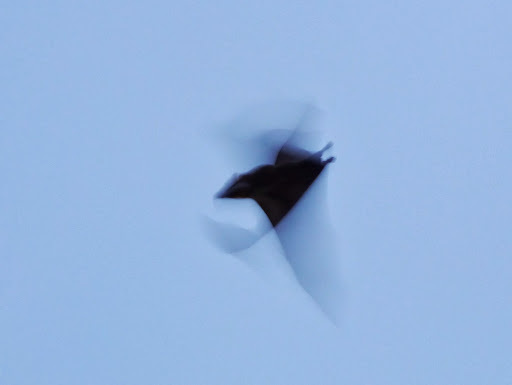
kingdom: Animalia
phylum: Chordata
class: Mammalia
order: Chiroptera
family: Pteropodidae
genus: Eidolon
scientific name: Eidolon helvum
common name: Straw-colored fruit bat
